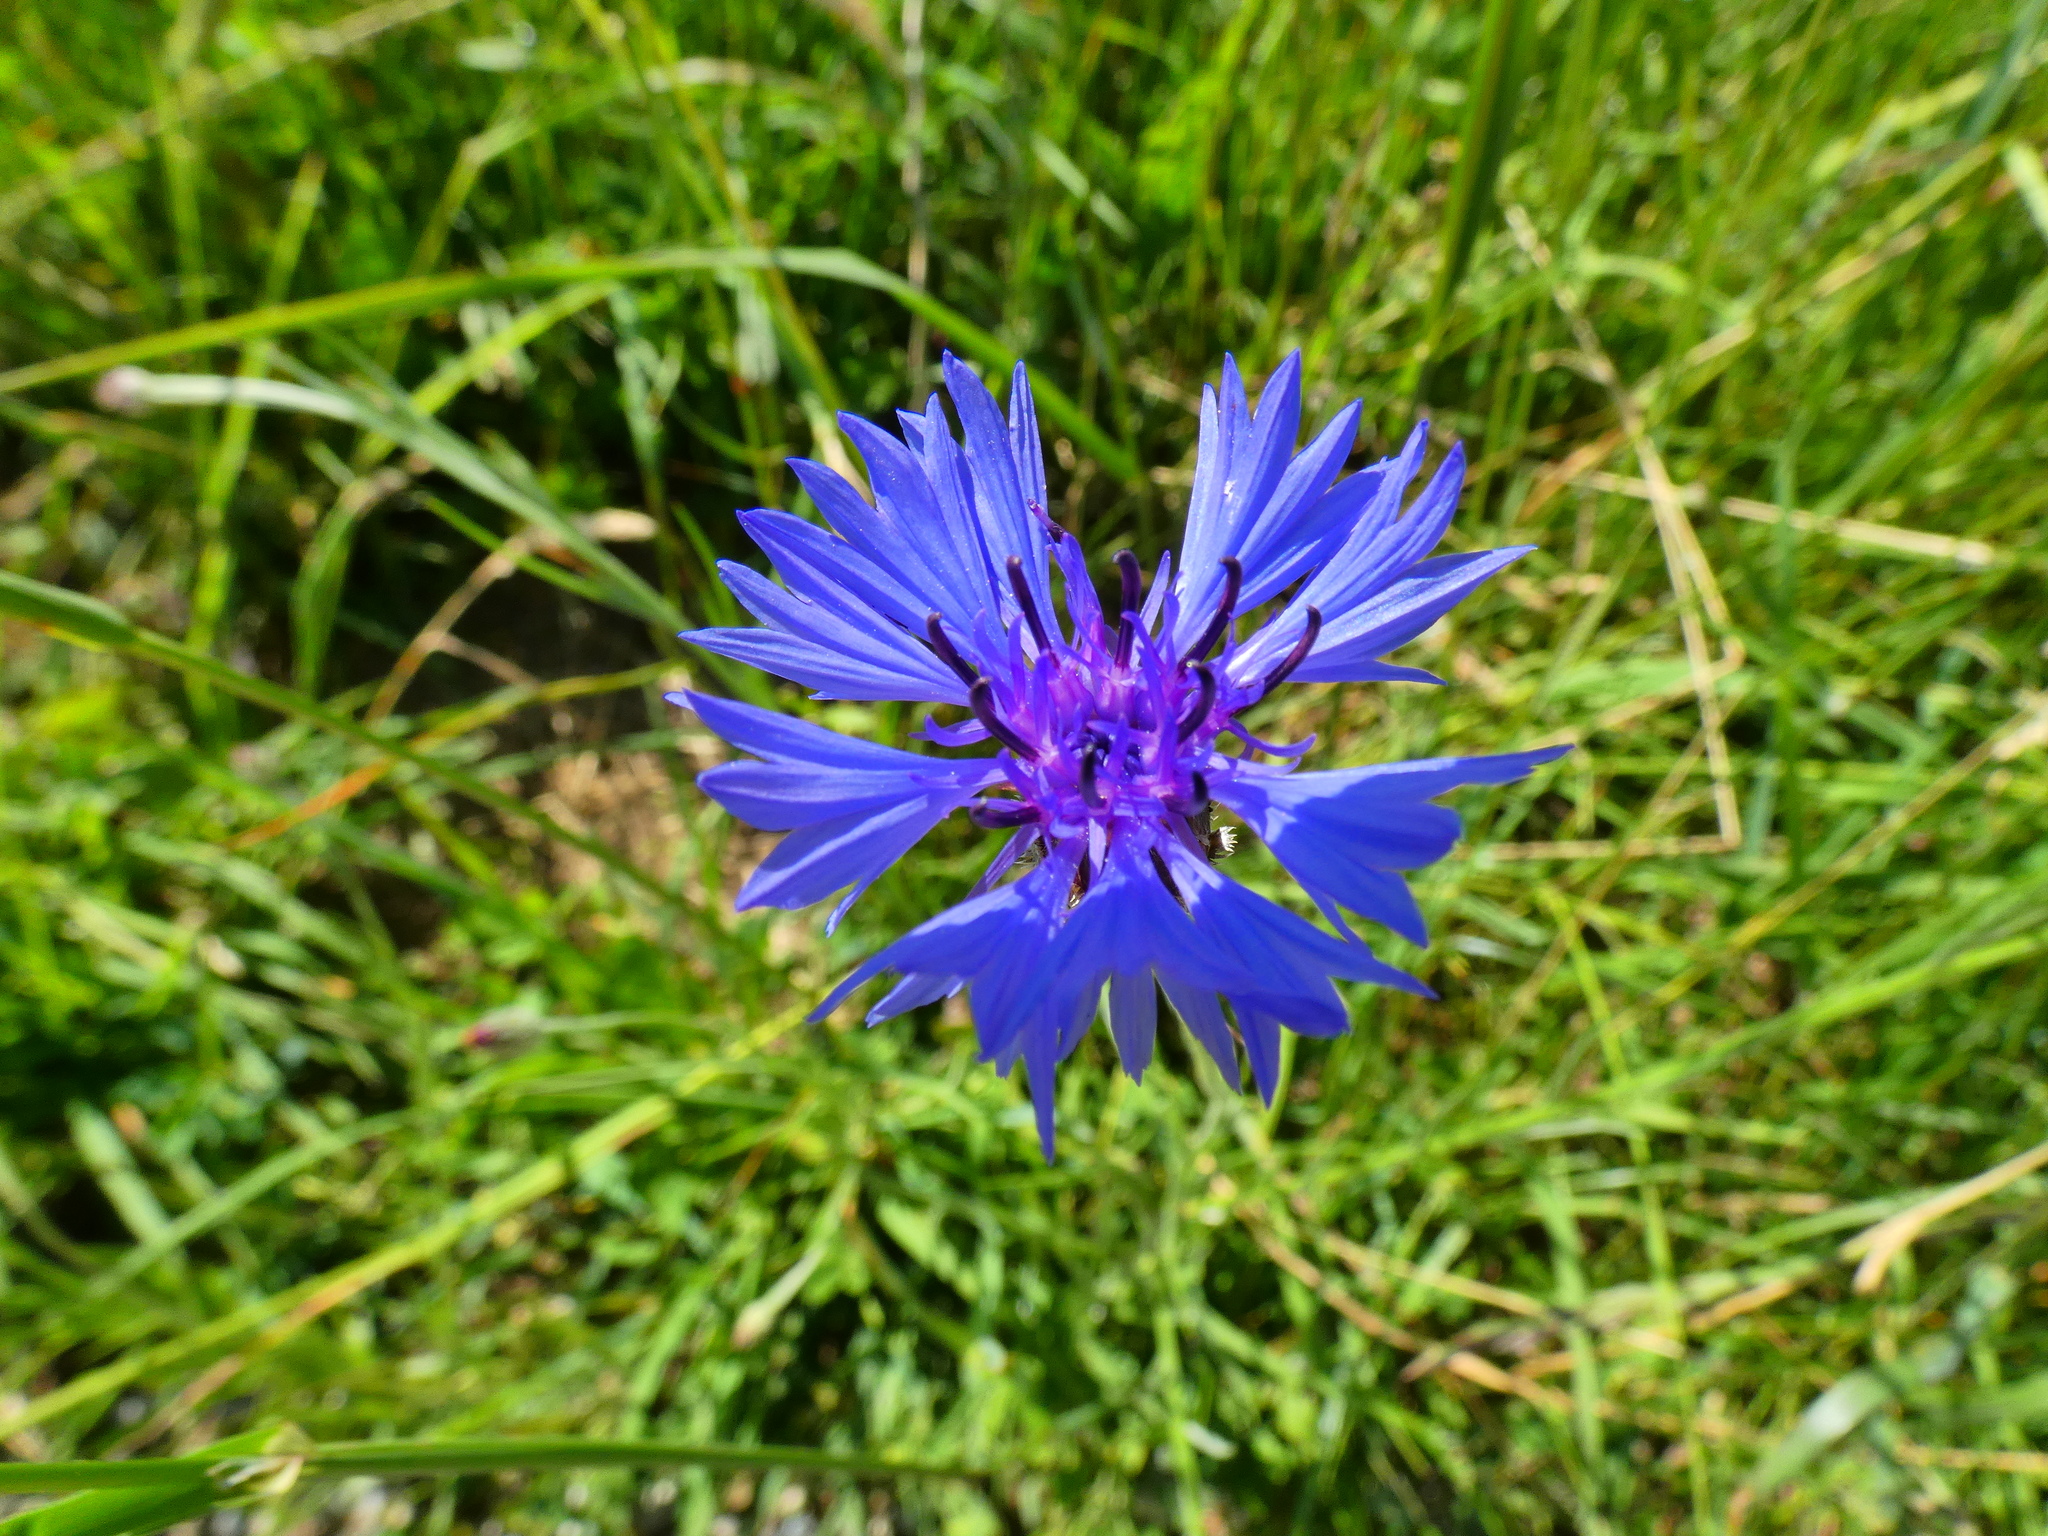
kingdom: Plantae
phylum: Tracheophyta
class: Magnoliopsida
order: Asterales
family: Asteraceae
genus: Centaurea
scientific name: Centaurea cyanus
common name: Cornflower
